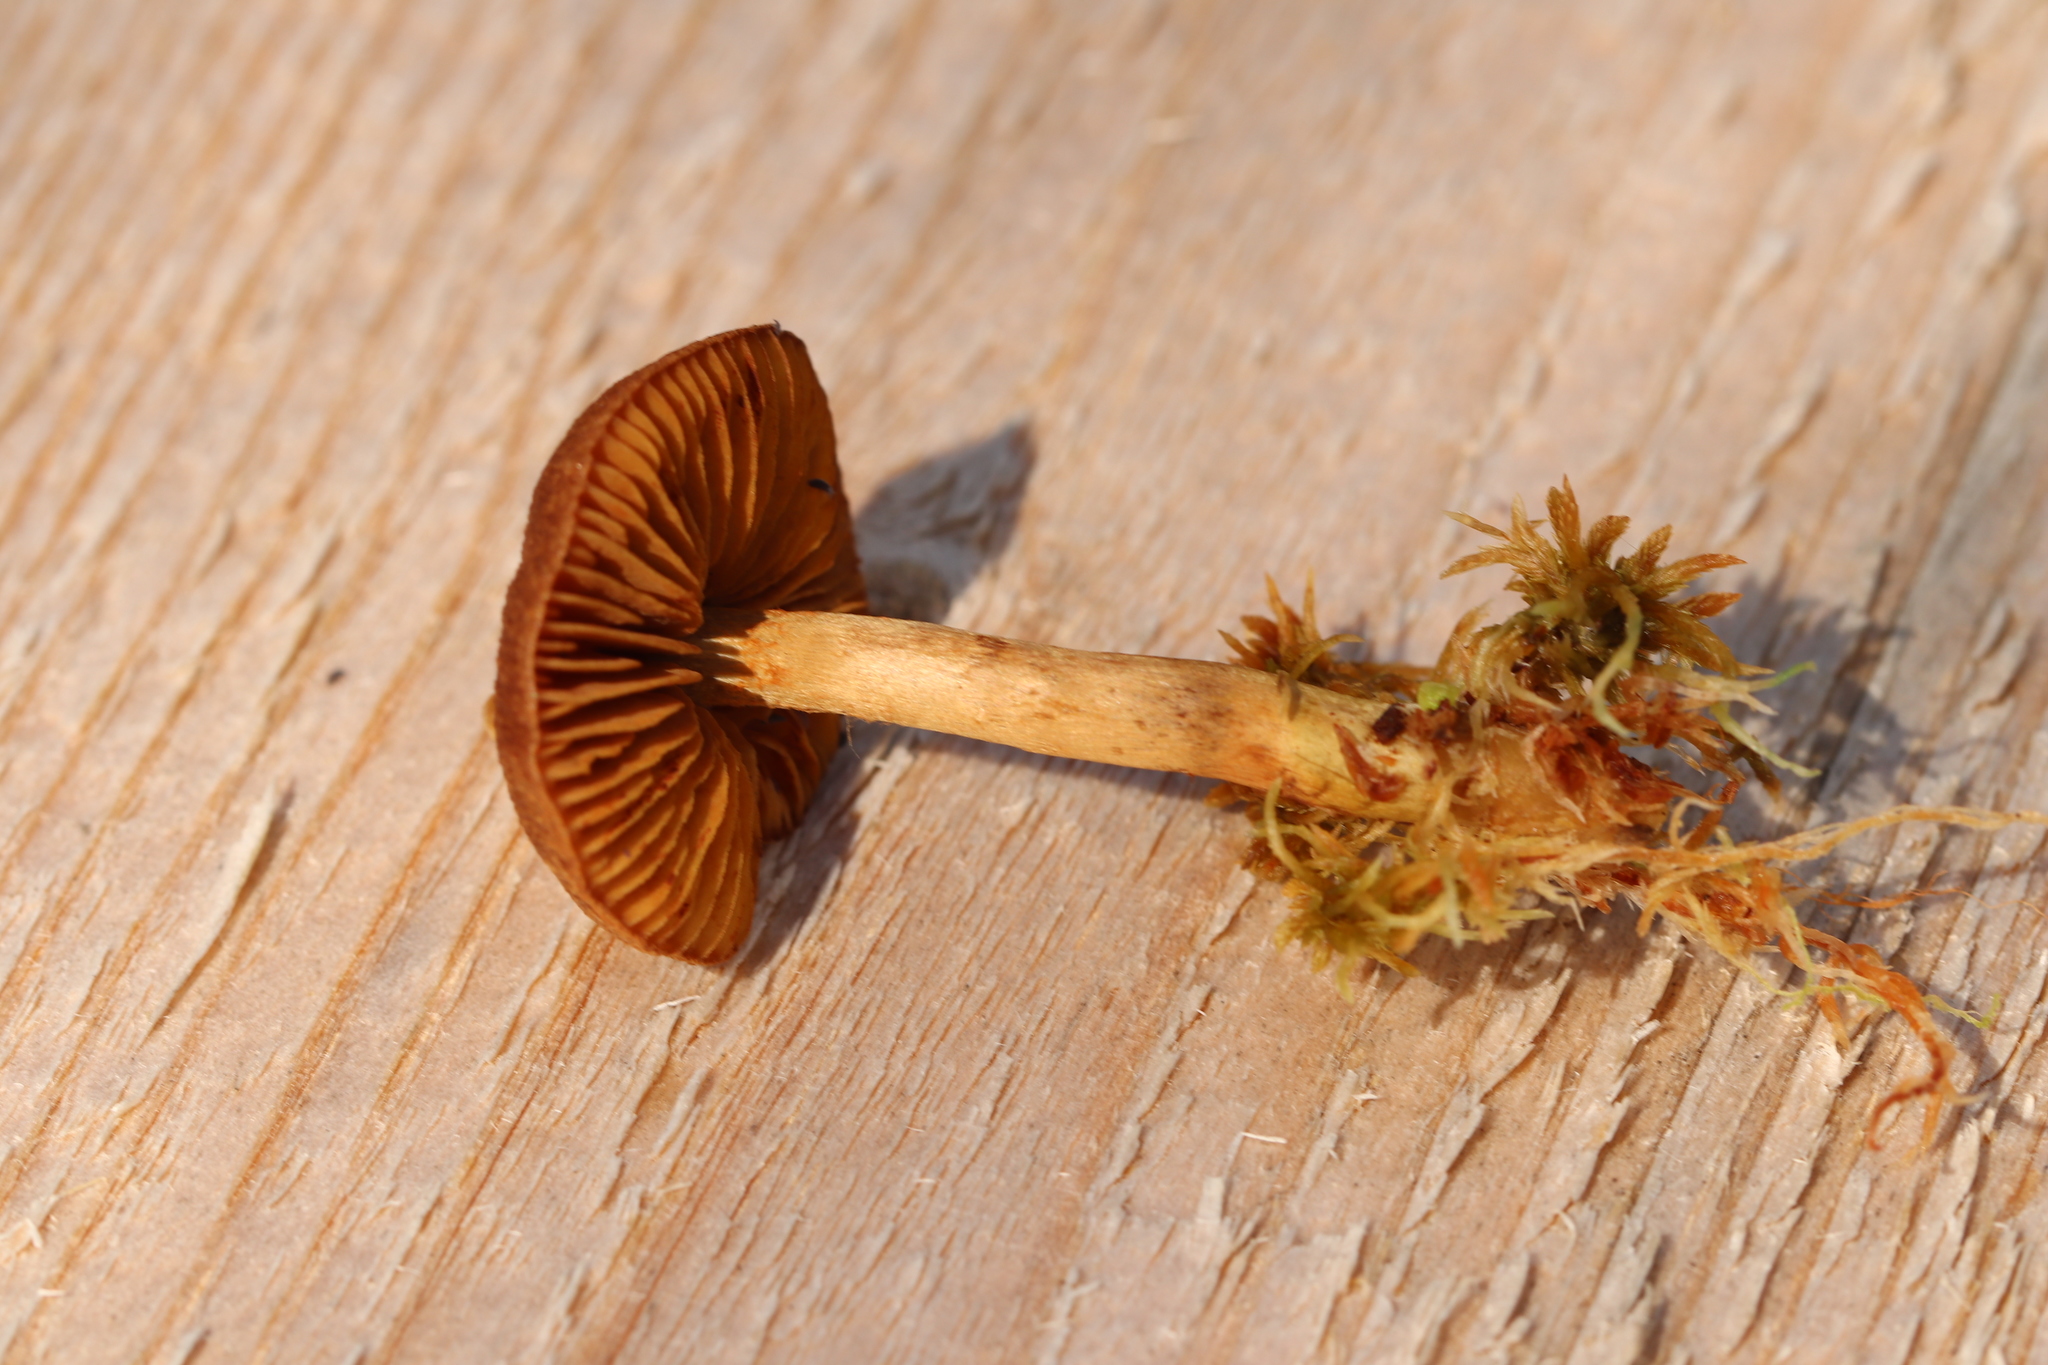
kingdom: Fungi
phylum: Basidiomycota
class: Agaricomycetes
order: Agaricales
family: Cortinariaceae
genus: Cortinarius
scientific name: Cortinarius chrysolitus
